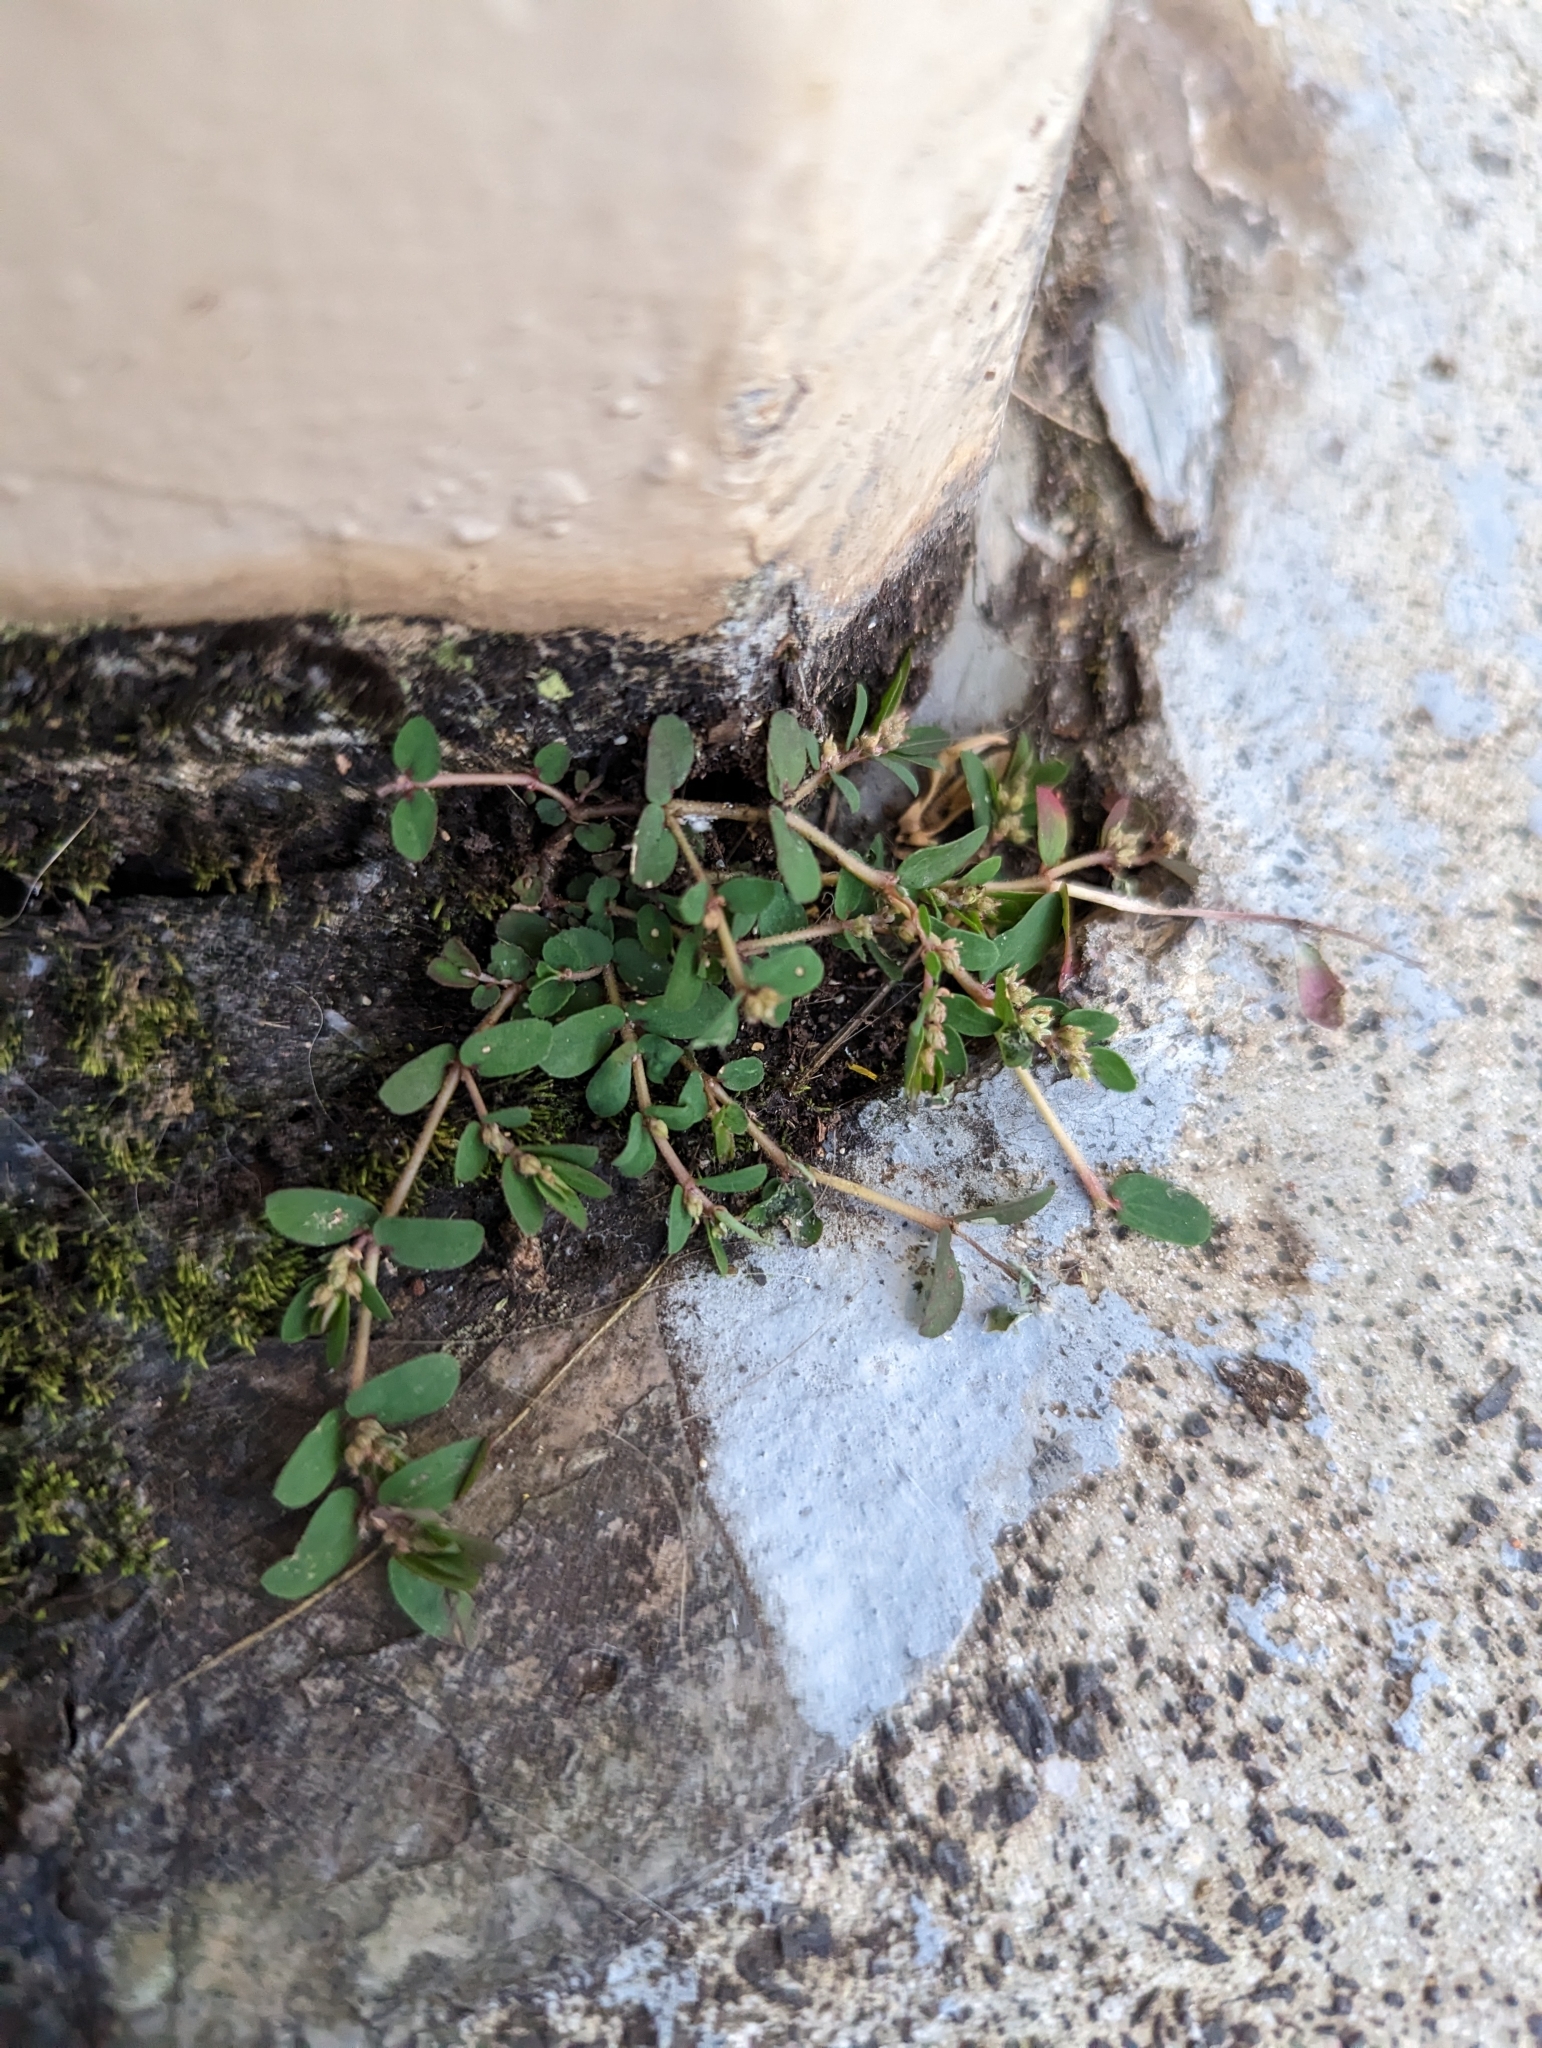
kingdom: Plantae
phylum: Tracheophyta
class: Magnoliopsida
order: Malpighiales
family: Euphorbiaceae
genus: Euphorbia
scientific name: Euphorbia thymifolia
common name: Gulf sandmat
